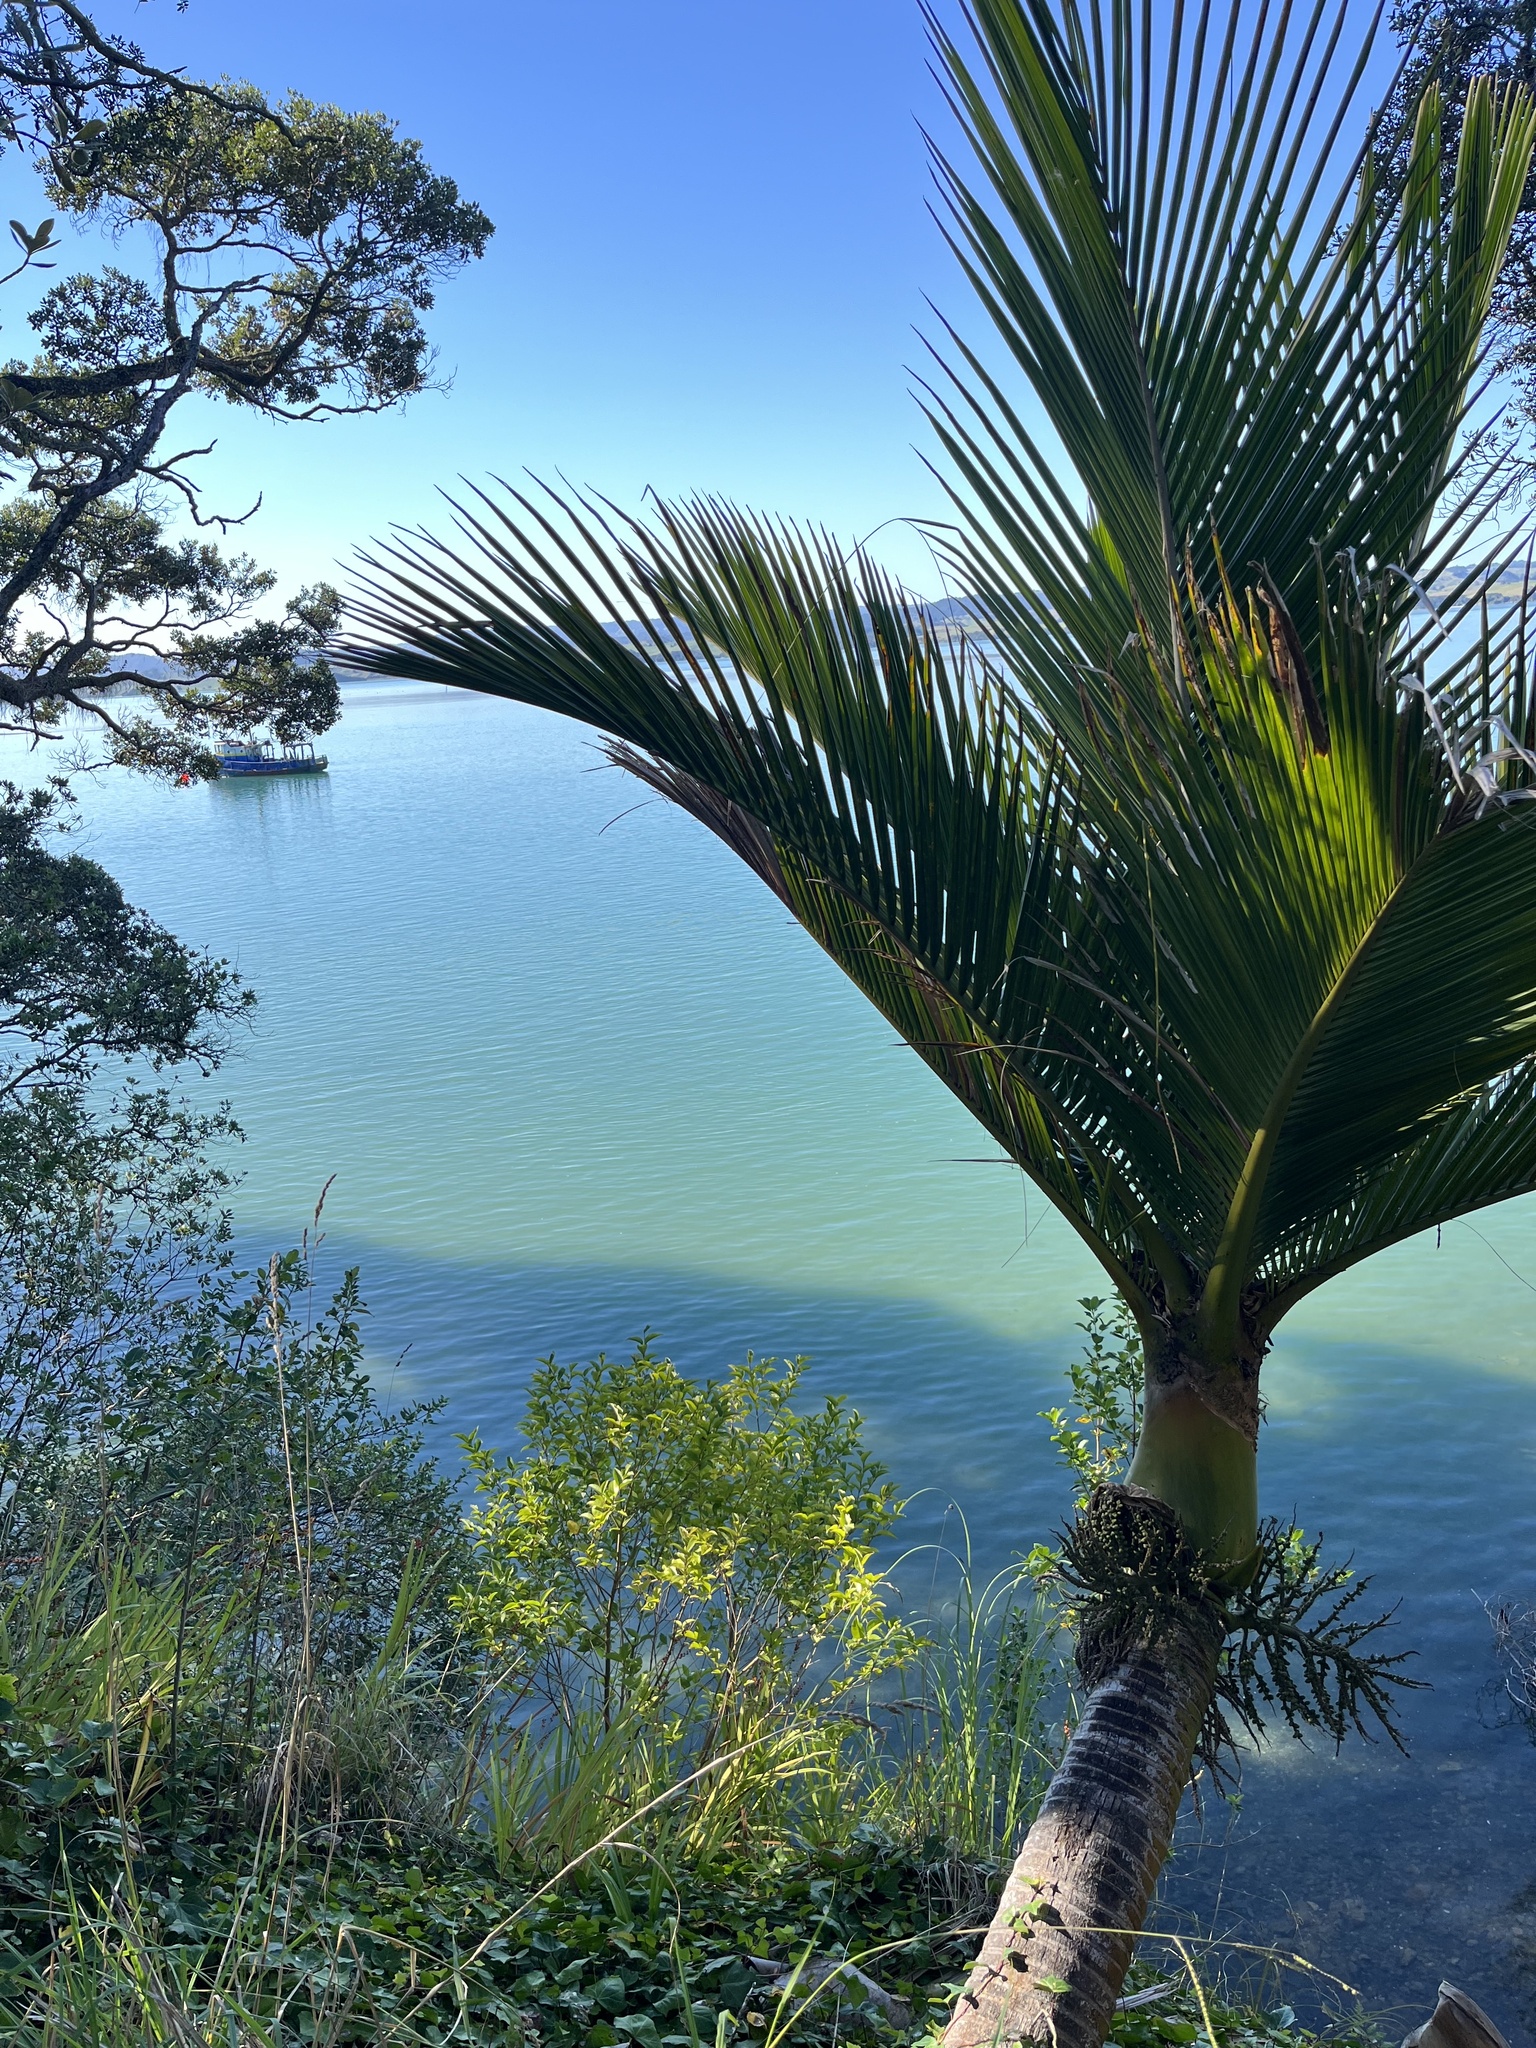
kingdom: Plantae
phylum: Tracheophyta
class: Liliopsida
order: Arecales
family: Arecaceae
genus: Rhopalostylis
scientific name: Rhopalostylis sapida
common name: Feather-duster palm
